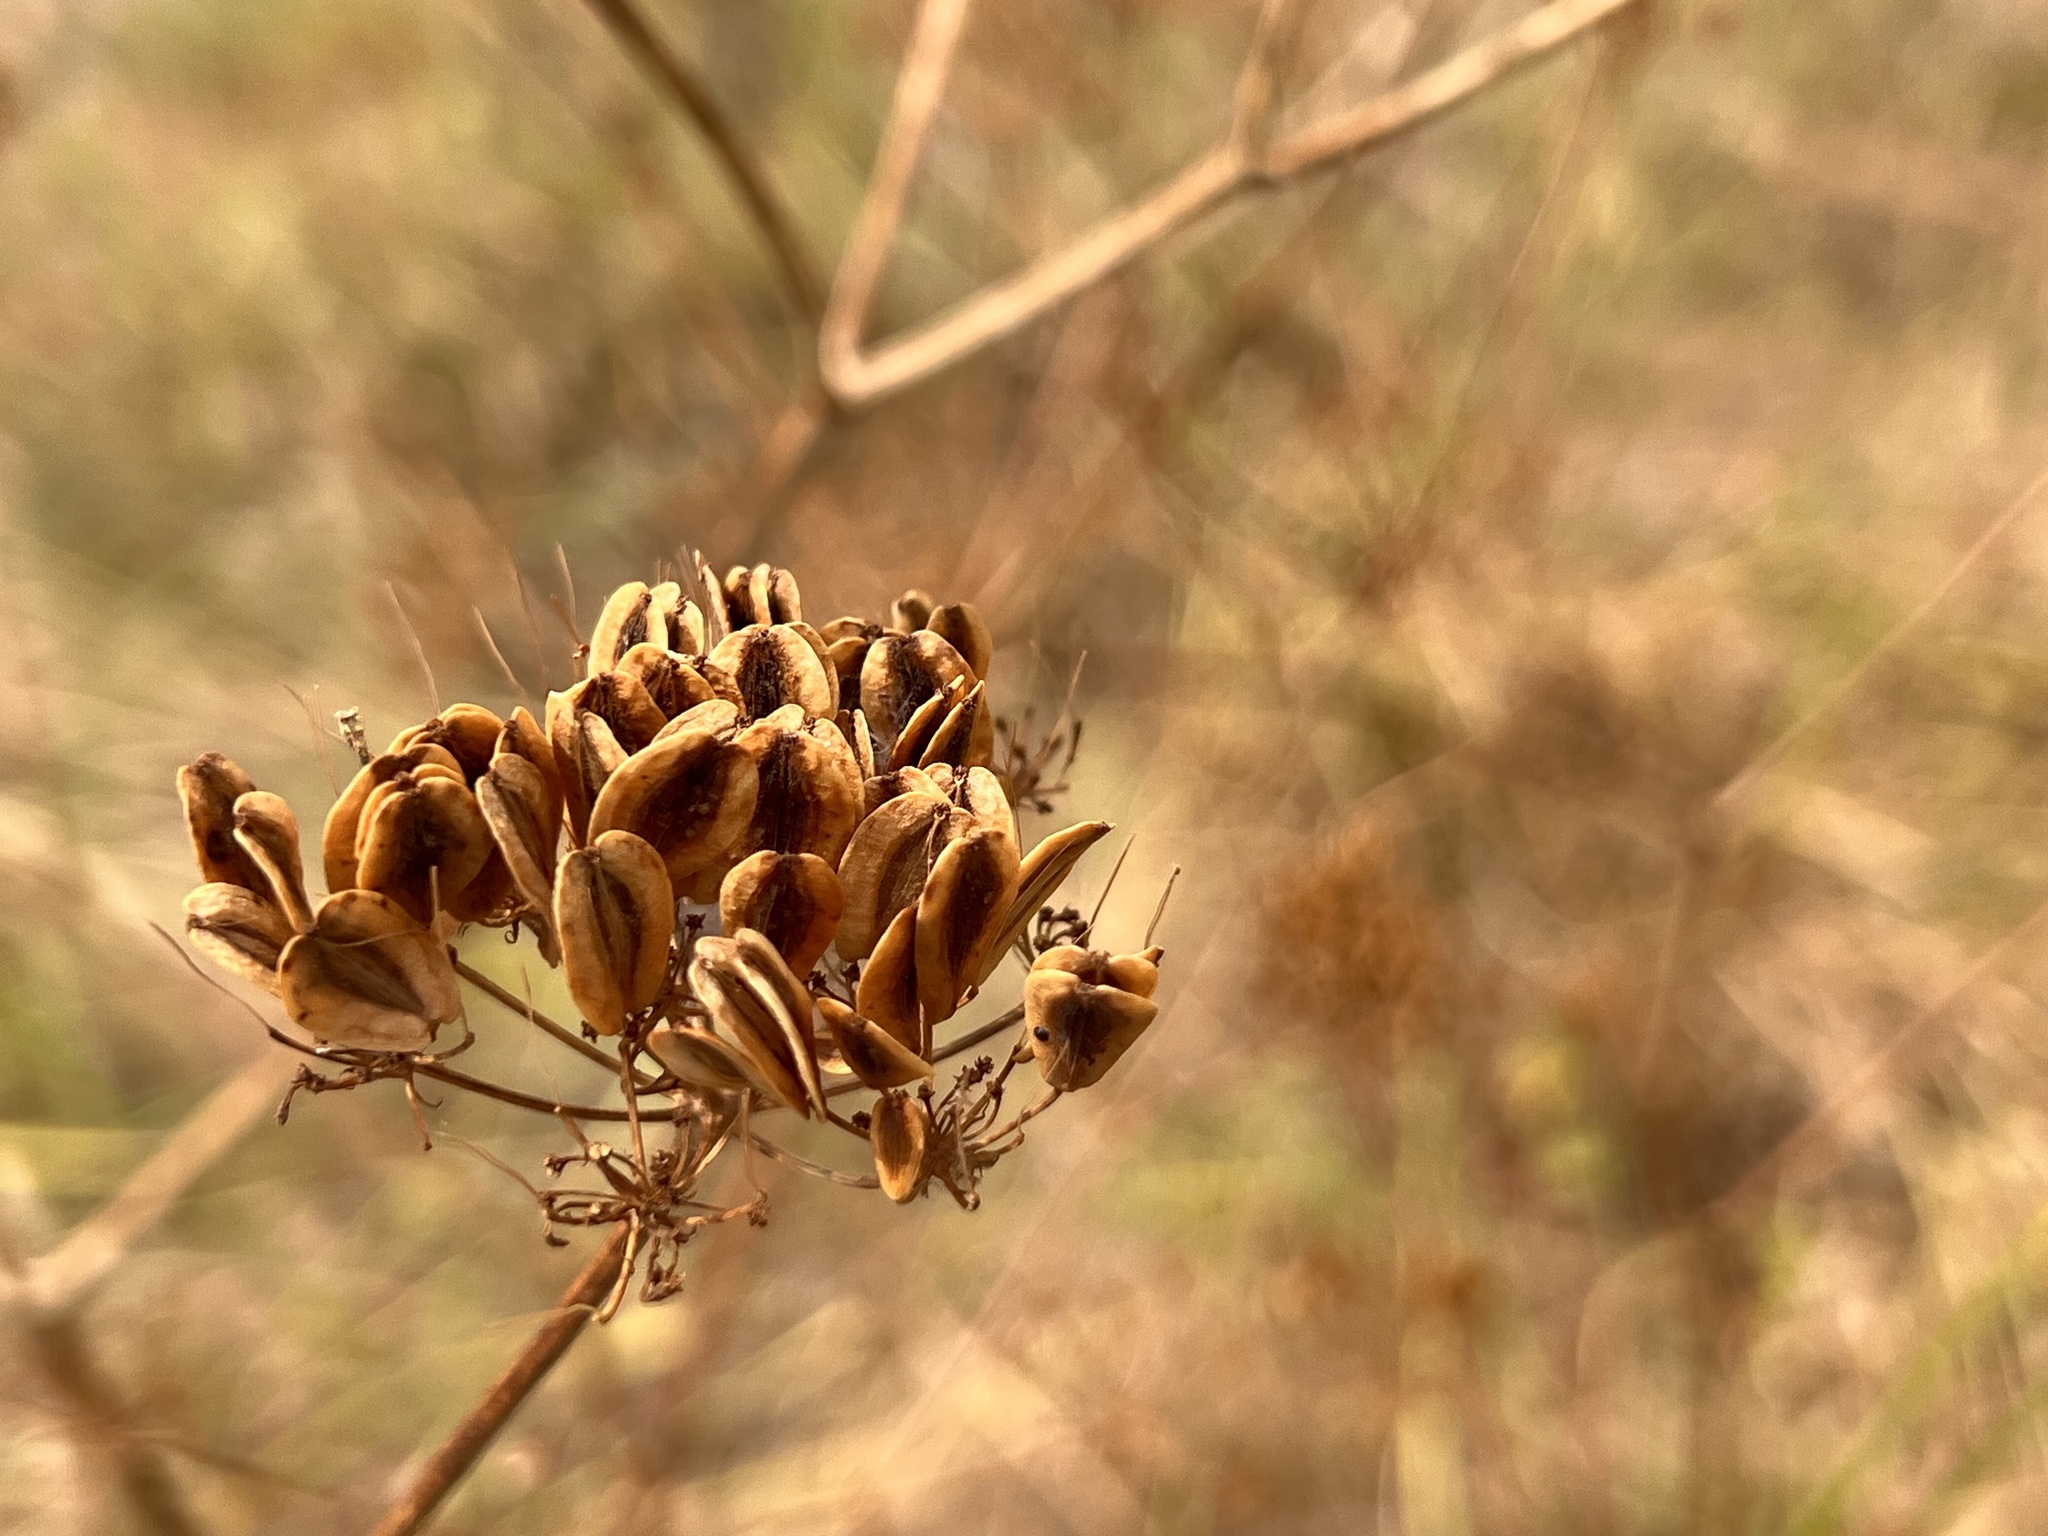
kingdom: Plantae
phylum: Tracheophyta
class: Magnoliopsida
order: Apiales
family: Apiaceae
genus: Polytaenia
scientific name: Polytaenia texana
